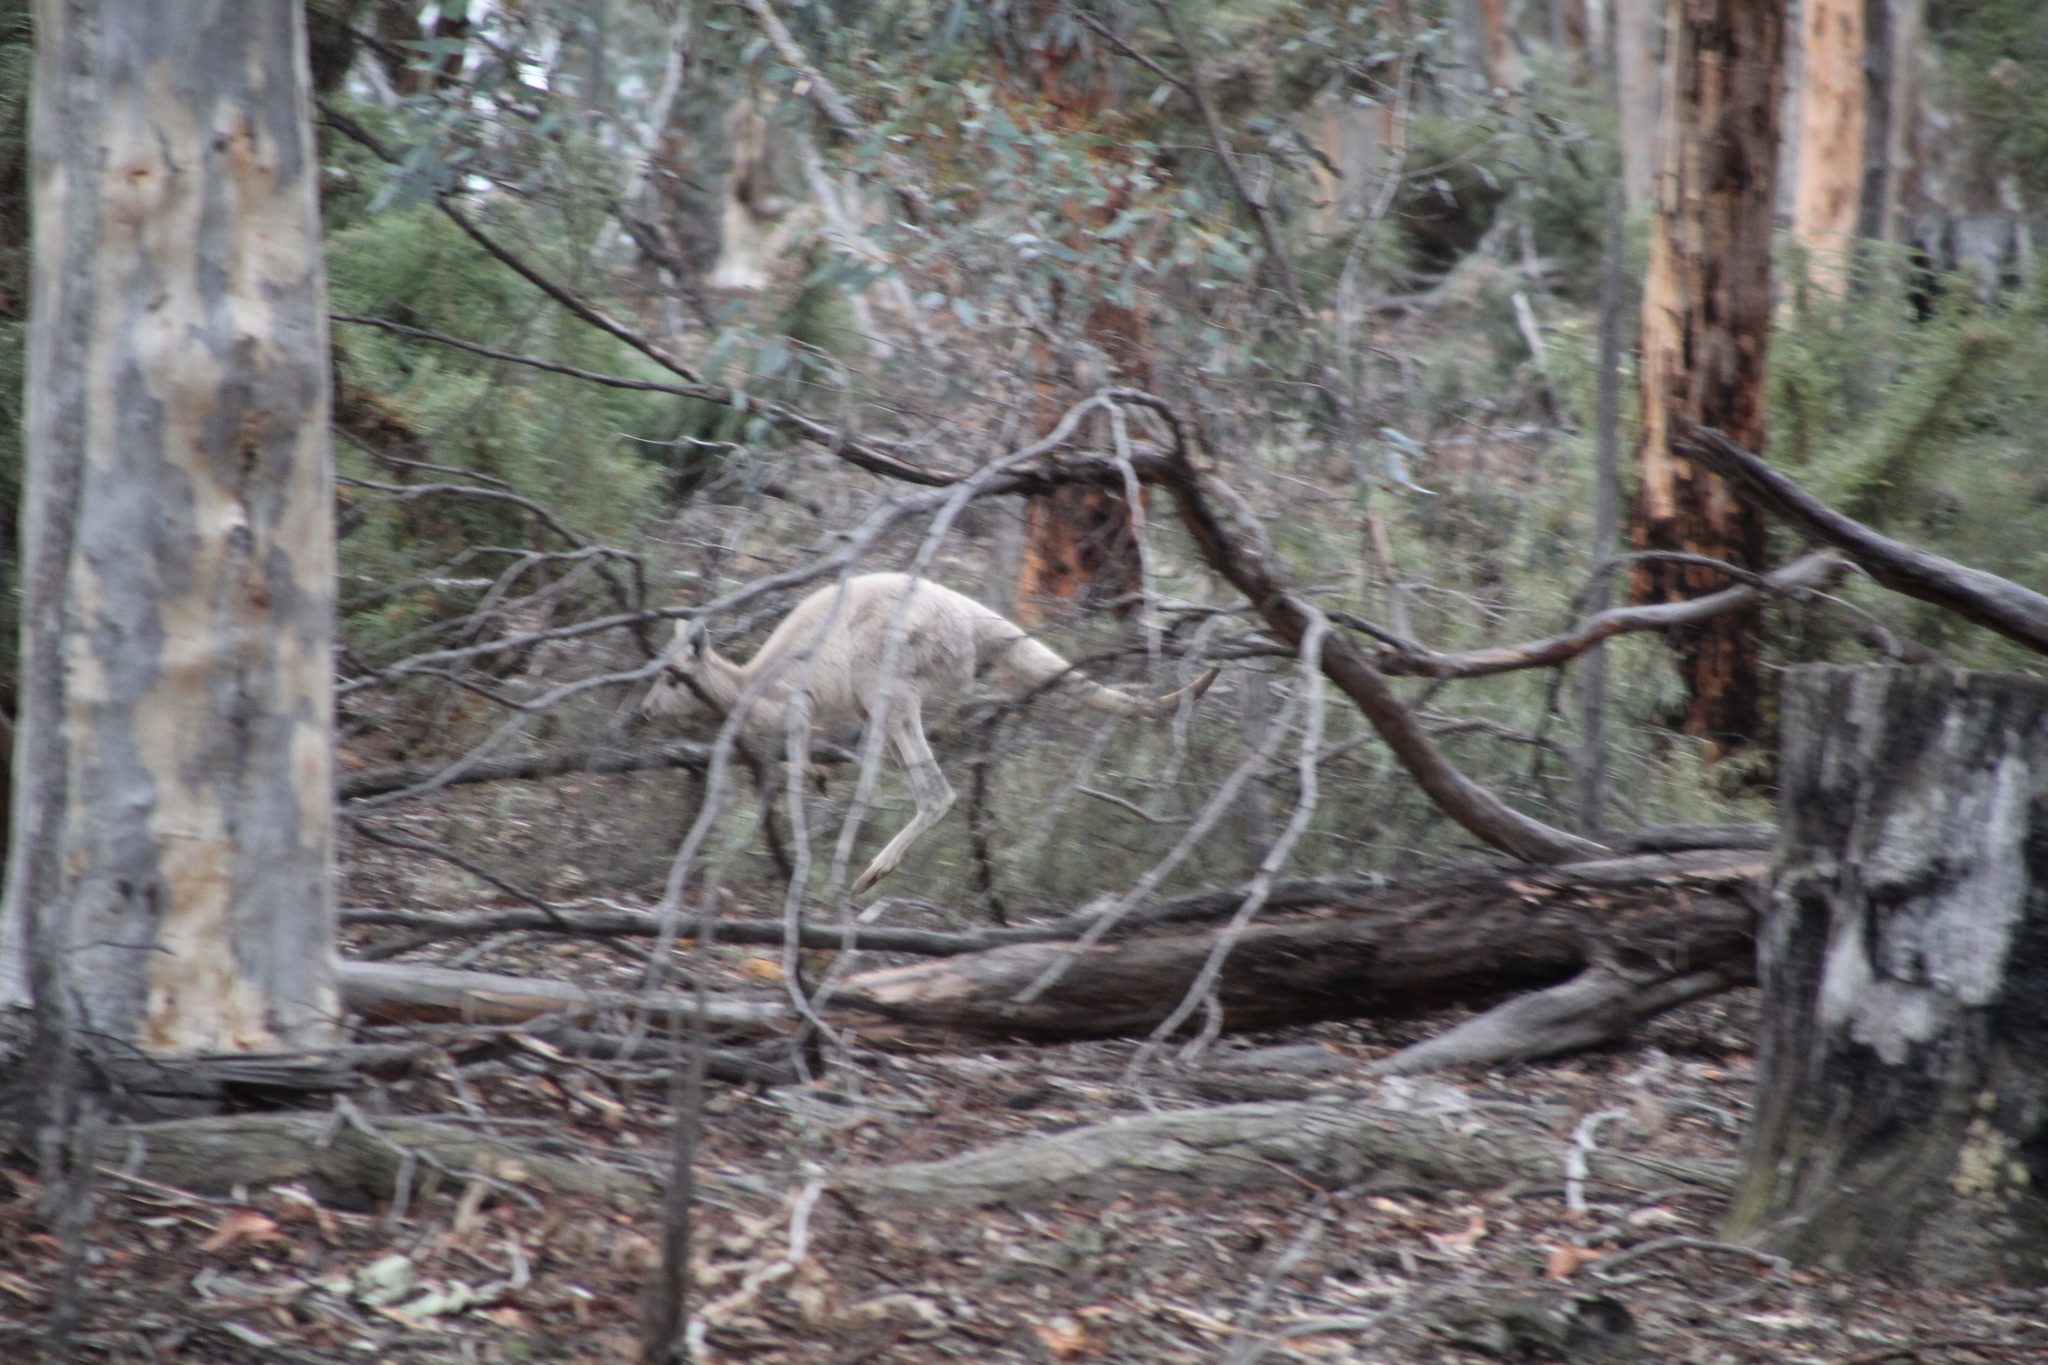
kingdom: Animalia
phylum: Chordata
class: Mammalia
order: Diprotodontia
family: Macropodidae
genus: Macropus
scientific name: Macropus fuliginosus
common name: Western grey kangaroo
